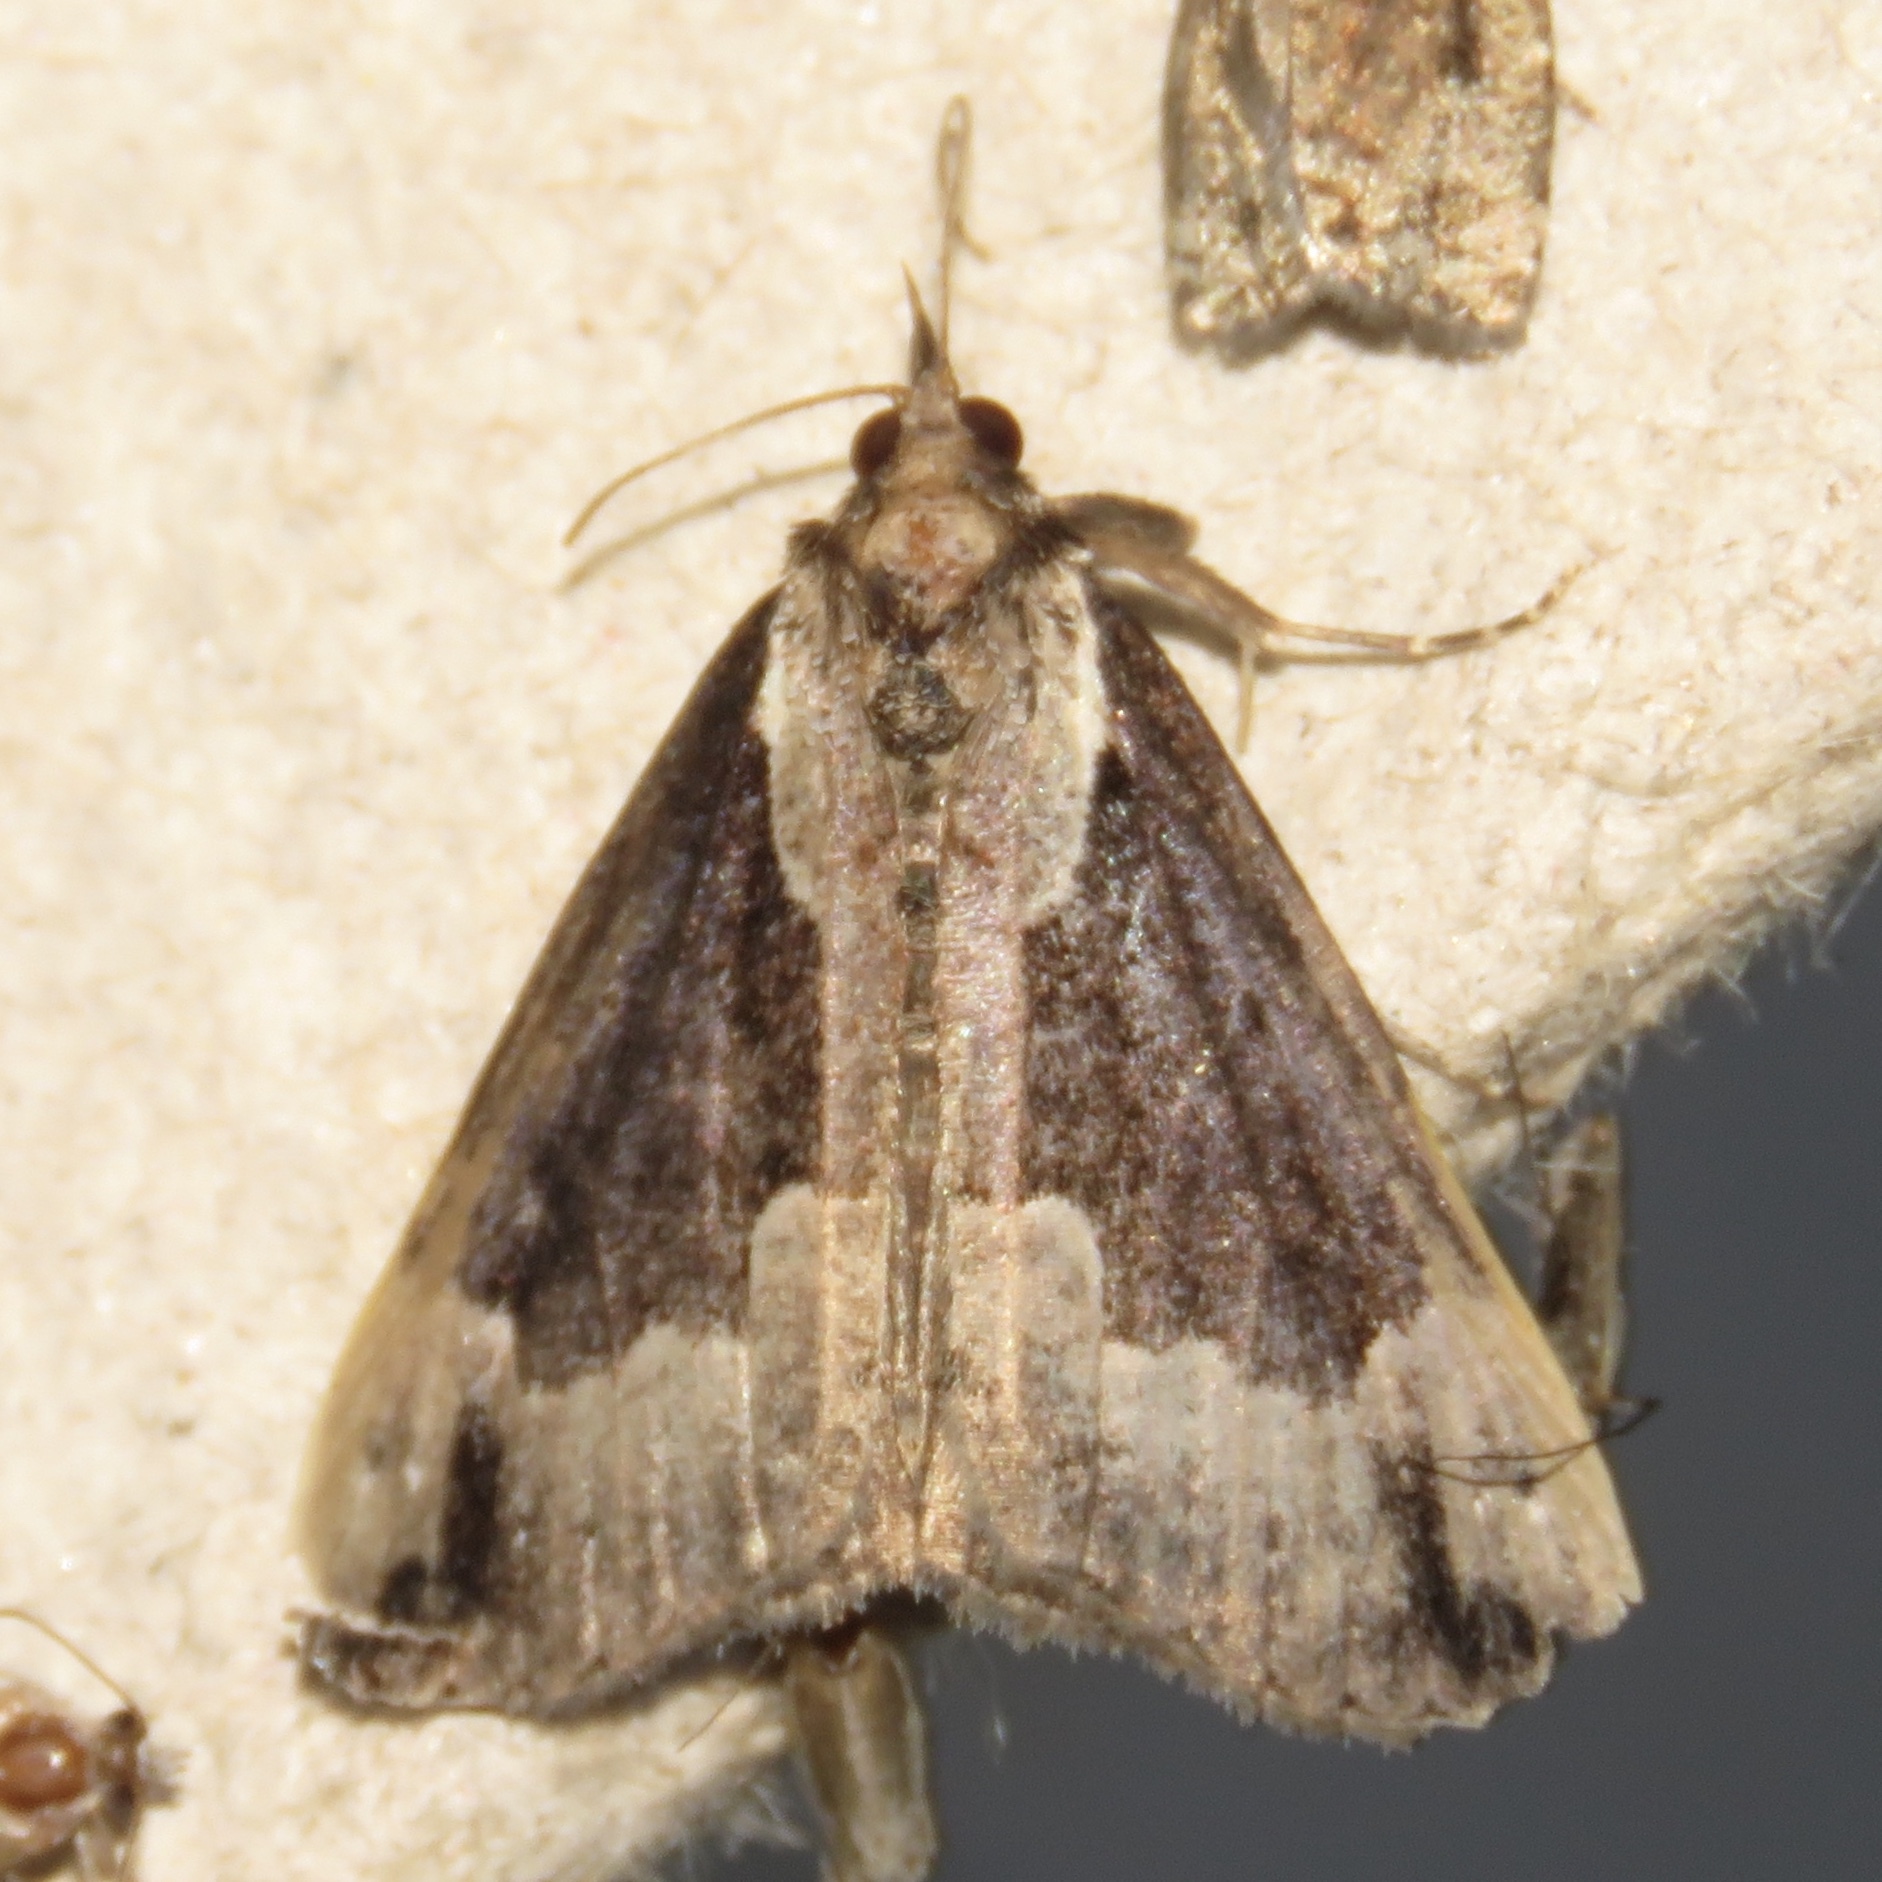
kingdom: Animalia
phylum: Arthropoda
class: Insecta
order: Lepidoptera
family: Erebidae
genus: Hypena
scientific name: Hypena baltimoralis
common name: Baltimore snout
